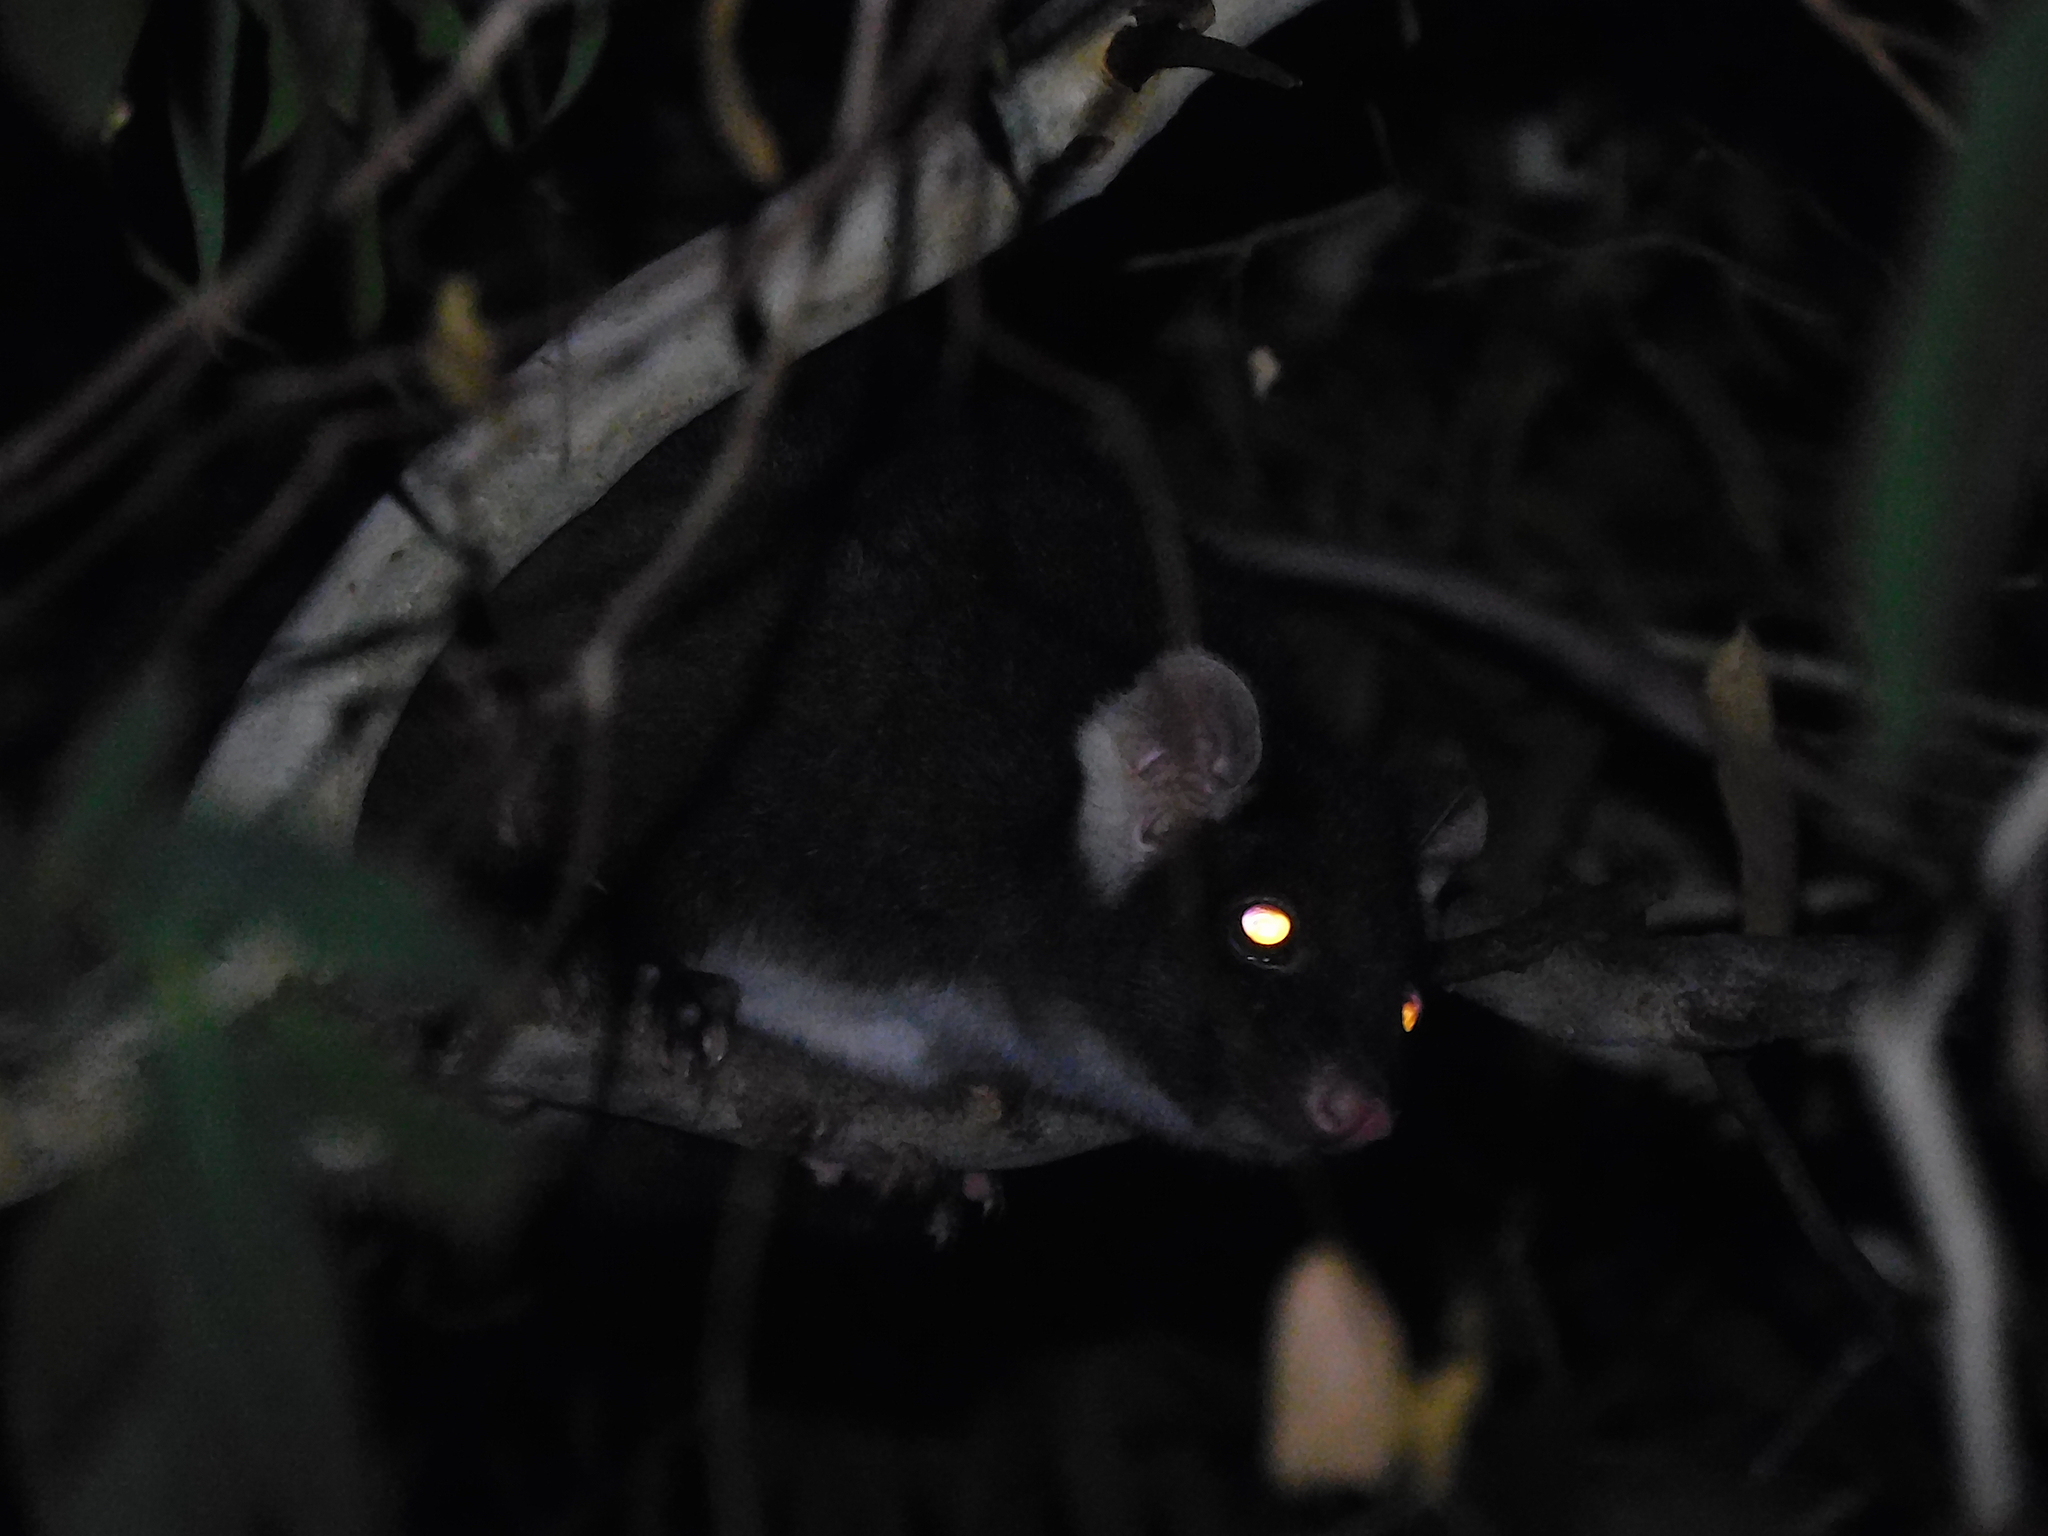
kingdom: Animalia
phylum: Chordata
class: Mammalia
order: Diprotodontia
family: Pseudocheiridae
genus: Pseudocheirus
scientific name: Pseudocheirus peregrinus
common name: Common ringtail possum
